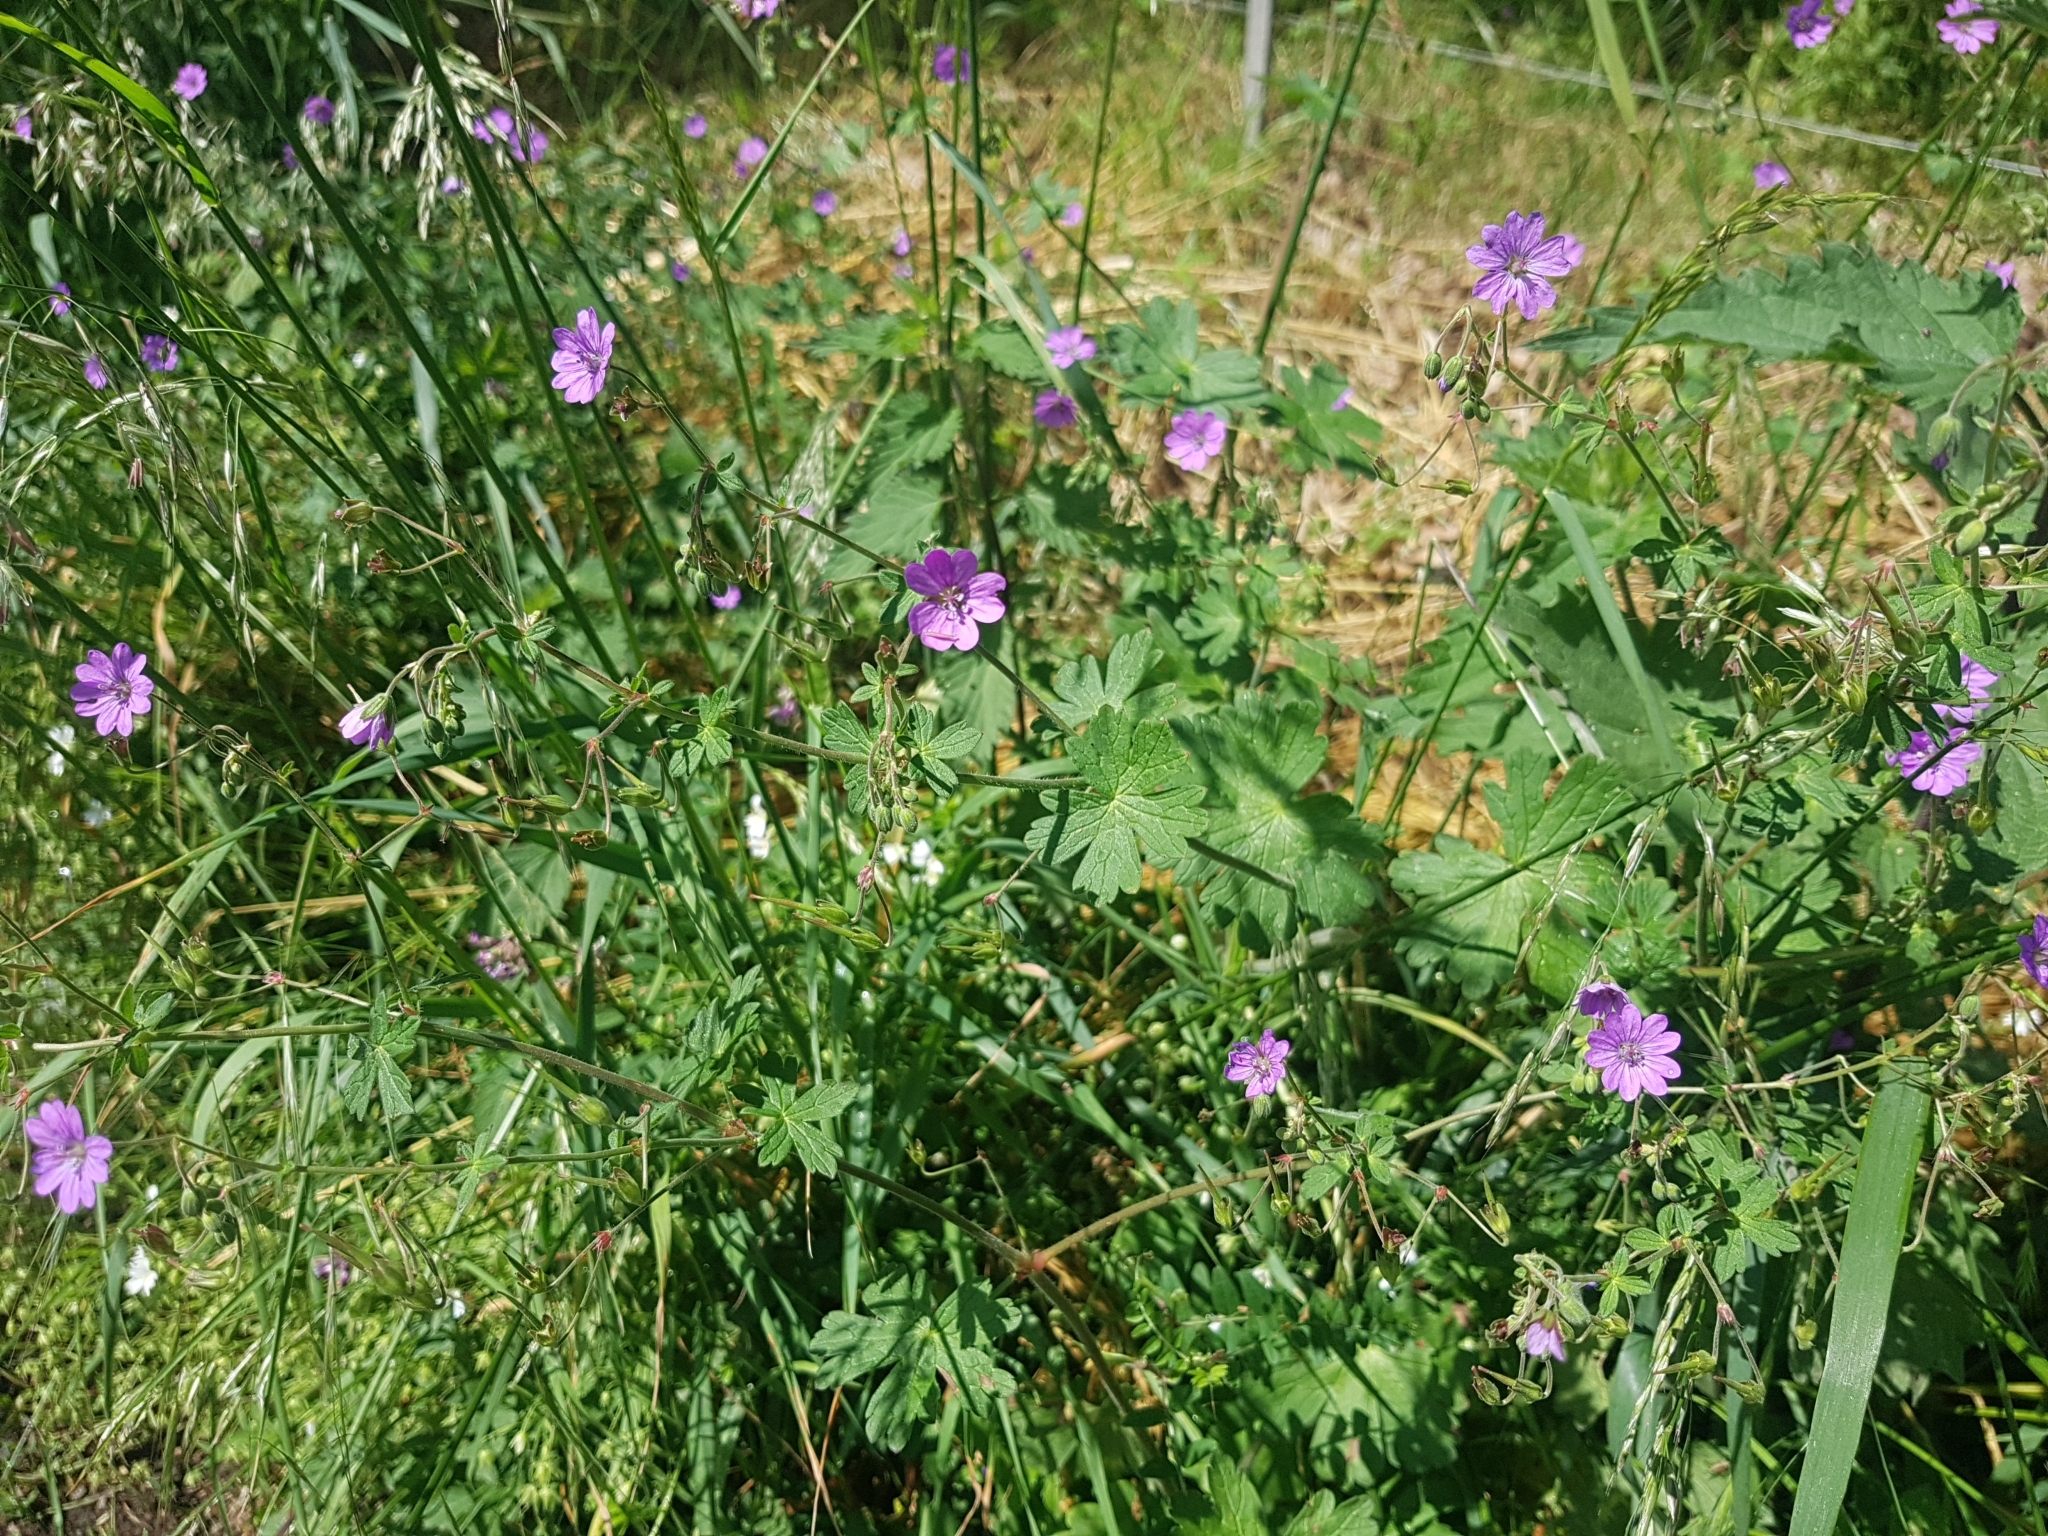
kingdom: Plantae
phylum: Tracheophyta
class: Magnoliopsida
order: Geraniales
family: Geraniaceae
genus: Geranium
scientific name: Geranium pyrenaicum
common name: Hedgerow crane's-bill
